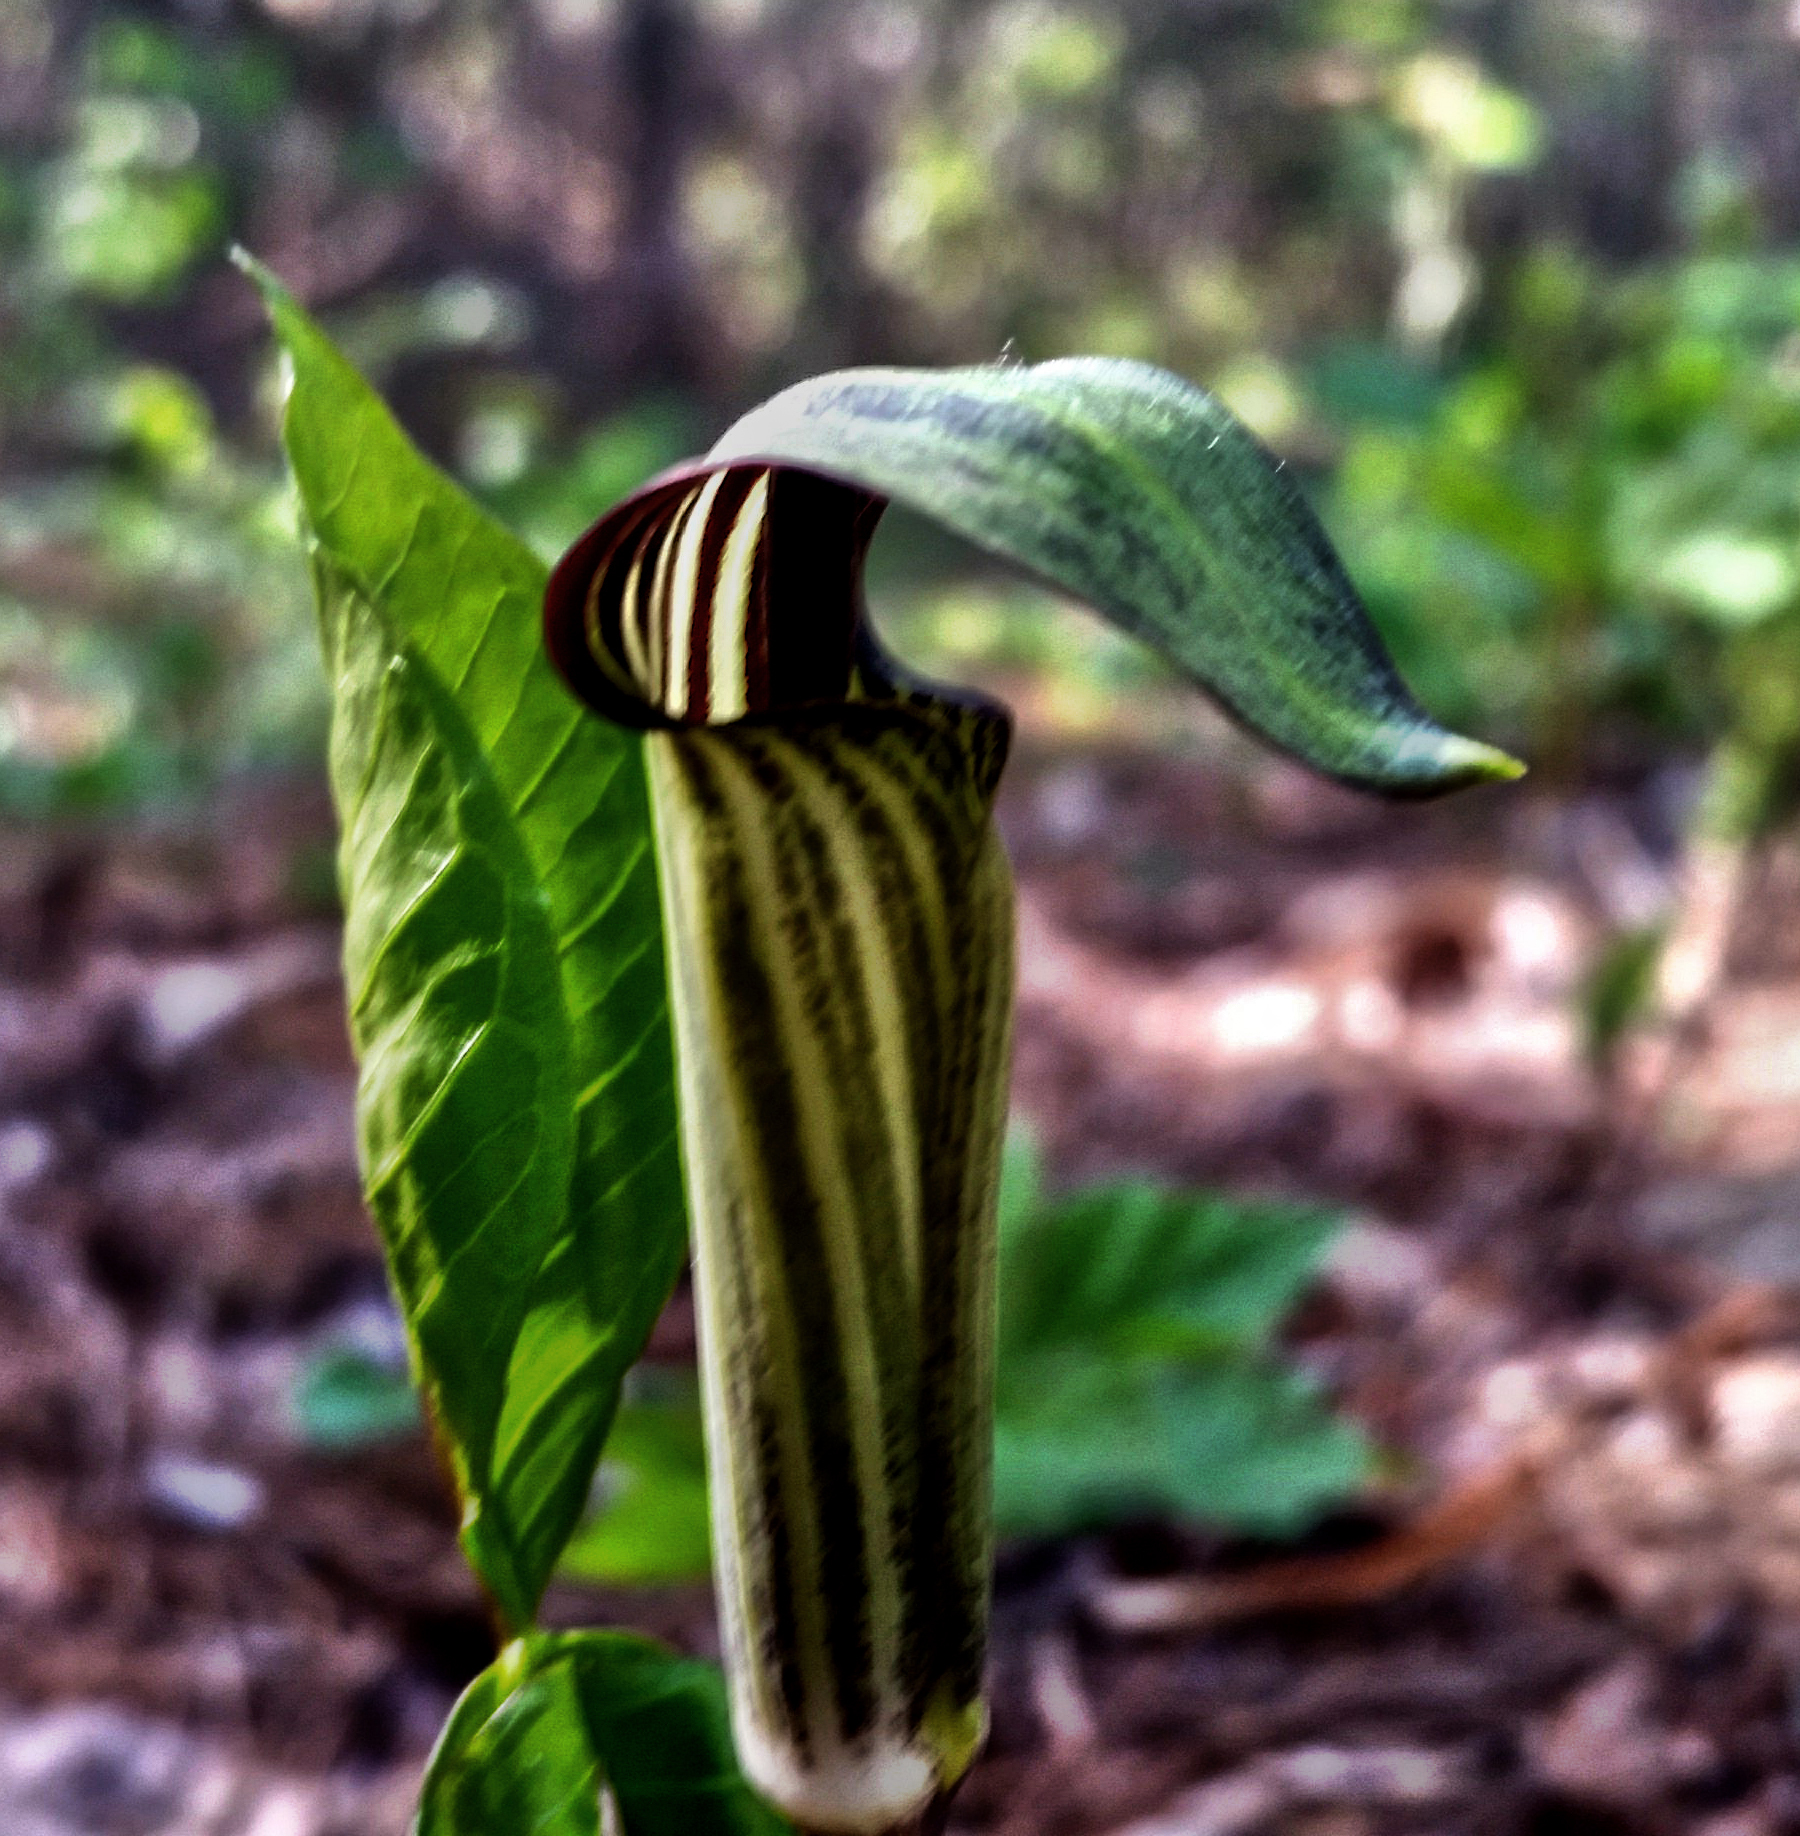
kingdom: Plantae
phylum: Tracheophyta
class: Liliopsida
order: Alismatales
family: Araceae
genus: Arisaema
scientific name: Arisaema triphyllum
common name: Jack-in-the-pulpit
